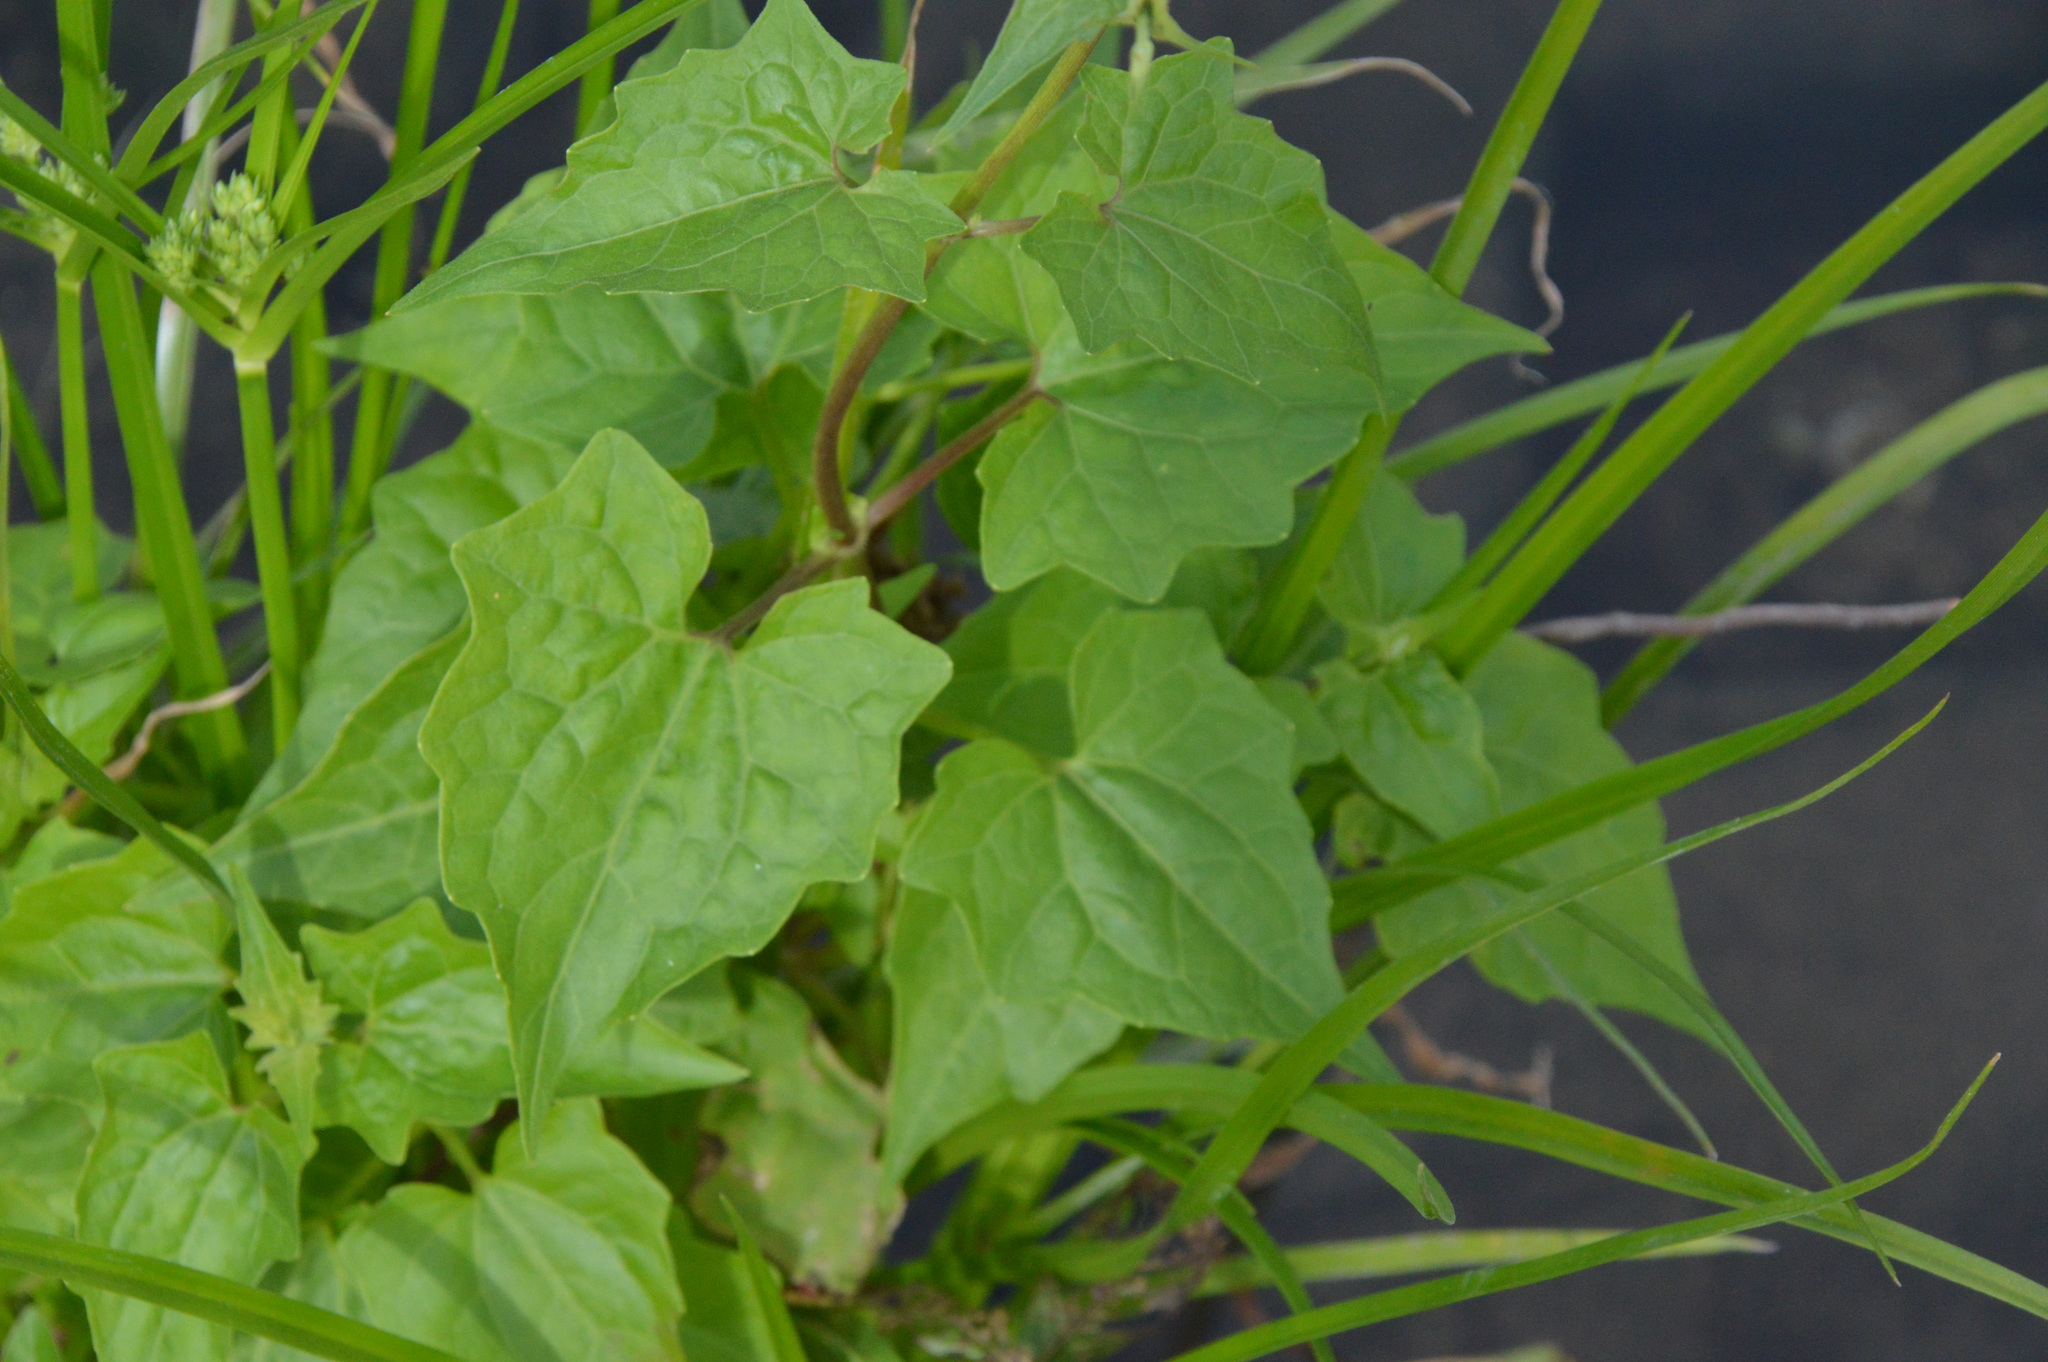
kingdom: Plantae
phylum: Tracheophyta
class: Magnoliopsida
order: Asterales
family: Asteraceae
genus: Mikania
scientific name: Mikania scandens
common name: Climbing hempvine
